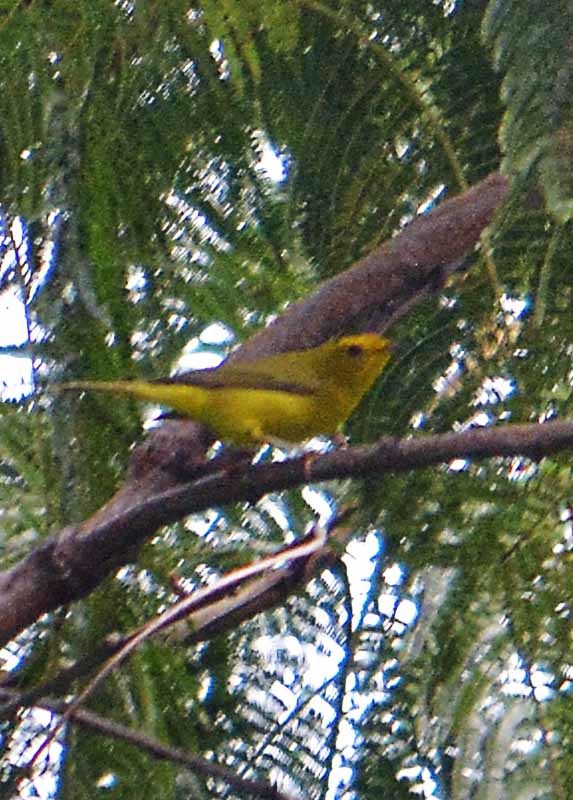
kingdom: Animalia
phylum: Chordata
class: Aves
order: Passeriformes
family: Parulidae
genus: Cardellina
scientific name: Cardellina pusilla
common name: Wilson's warbler
